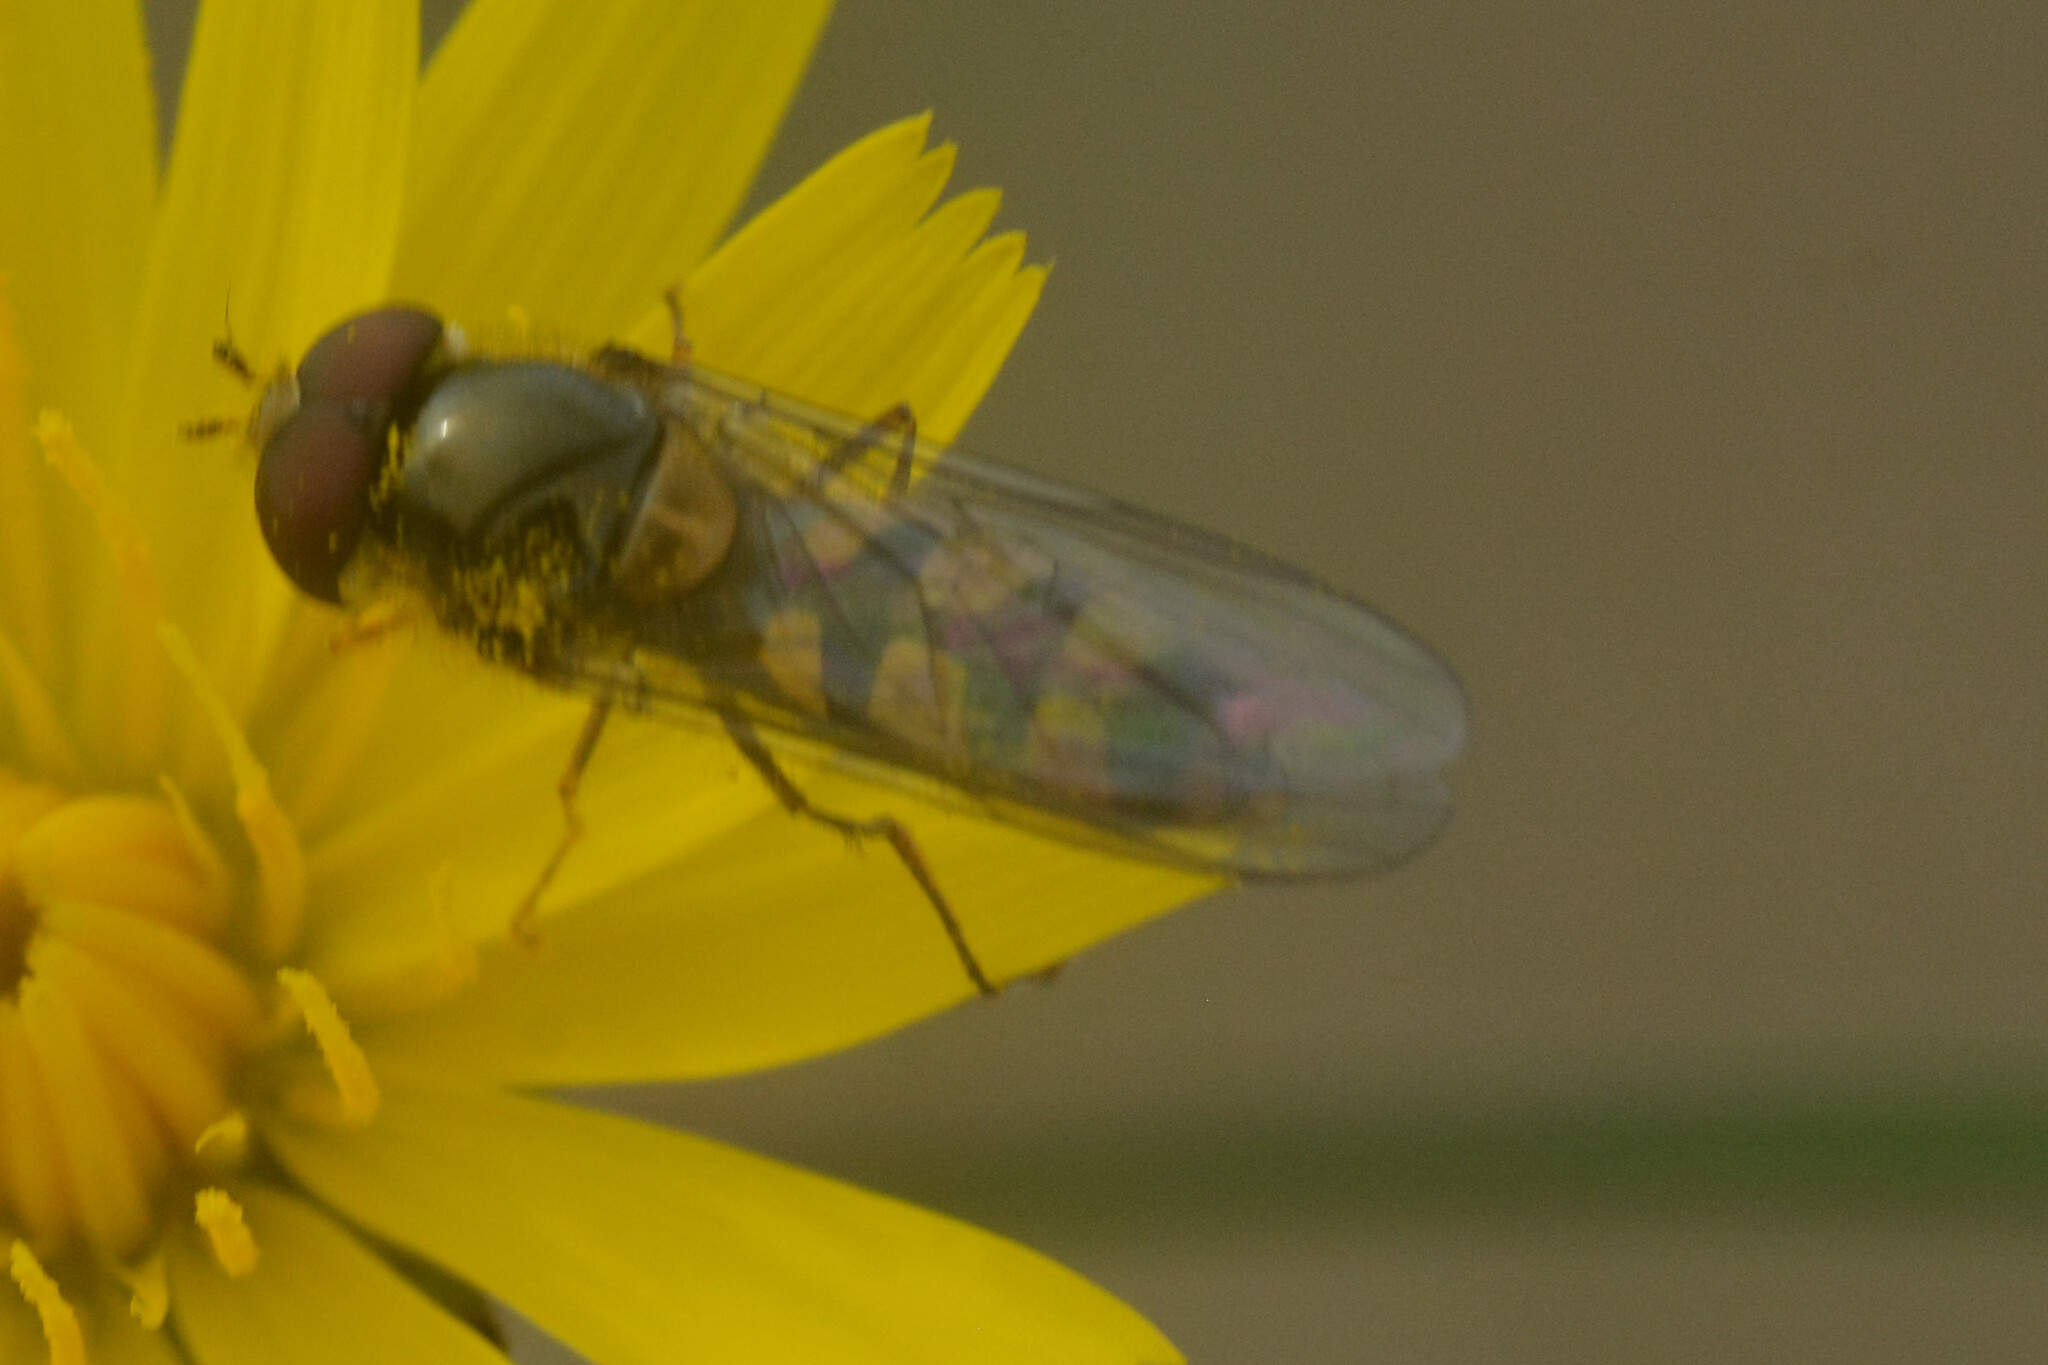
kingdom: Animalia
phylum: Arthropoda
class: Insecta
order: Diptera
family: Syrphidae
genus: Meliscaeva
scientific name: Meliscaeva auricollis
